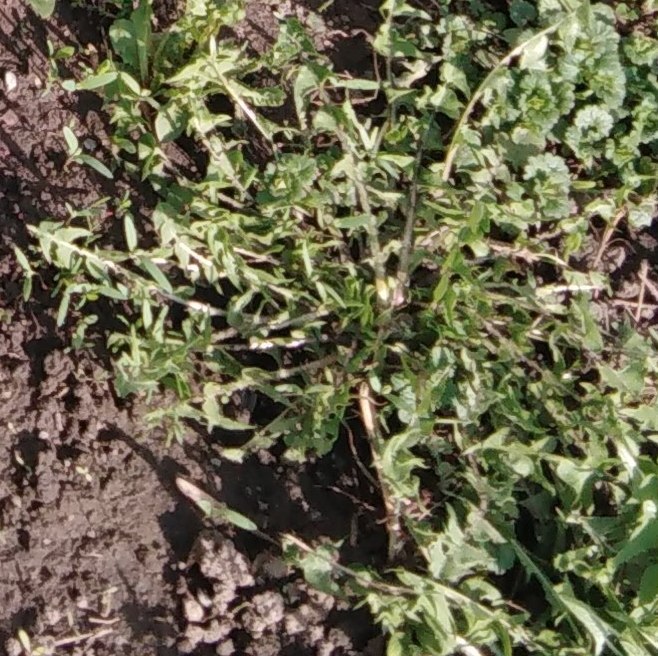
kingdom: Plantae
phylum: Tracheophyta
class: Magnoliopsida
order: Asterales
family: Asteraceae
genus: Taraxacum
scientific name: Taraxacum officinale
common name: Common dandelion
